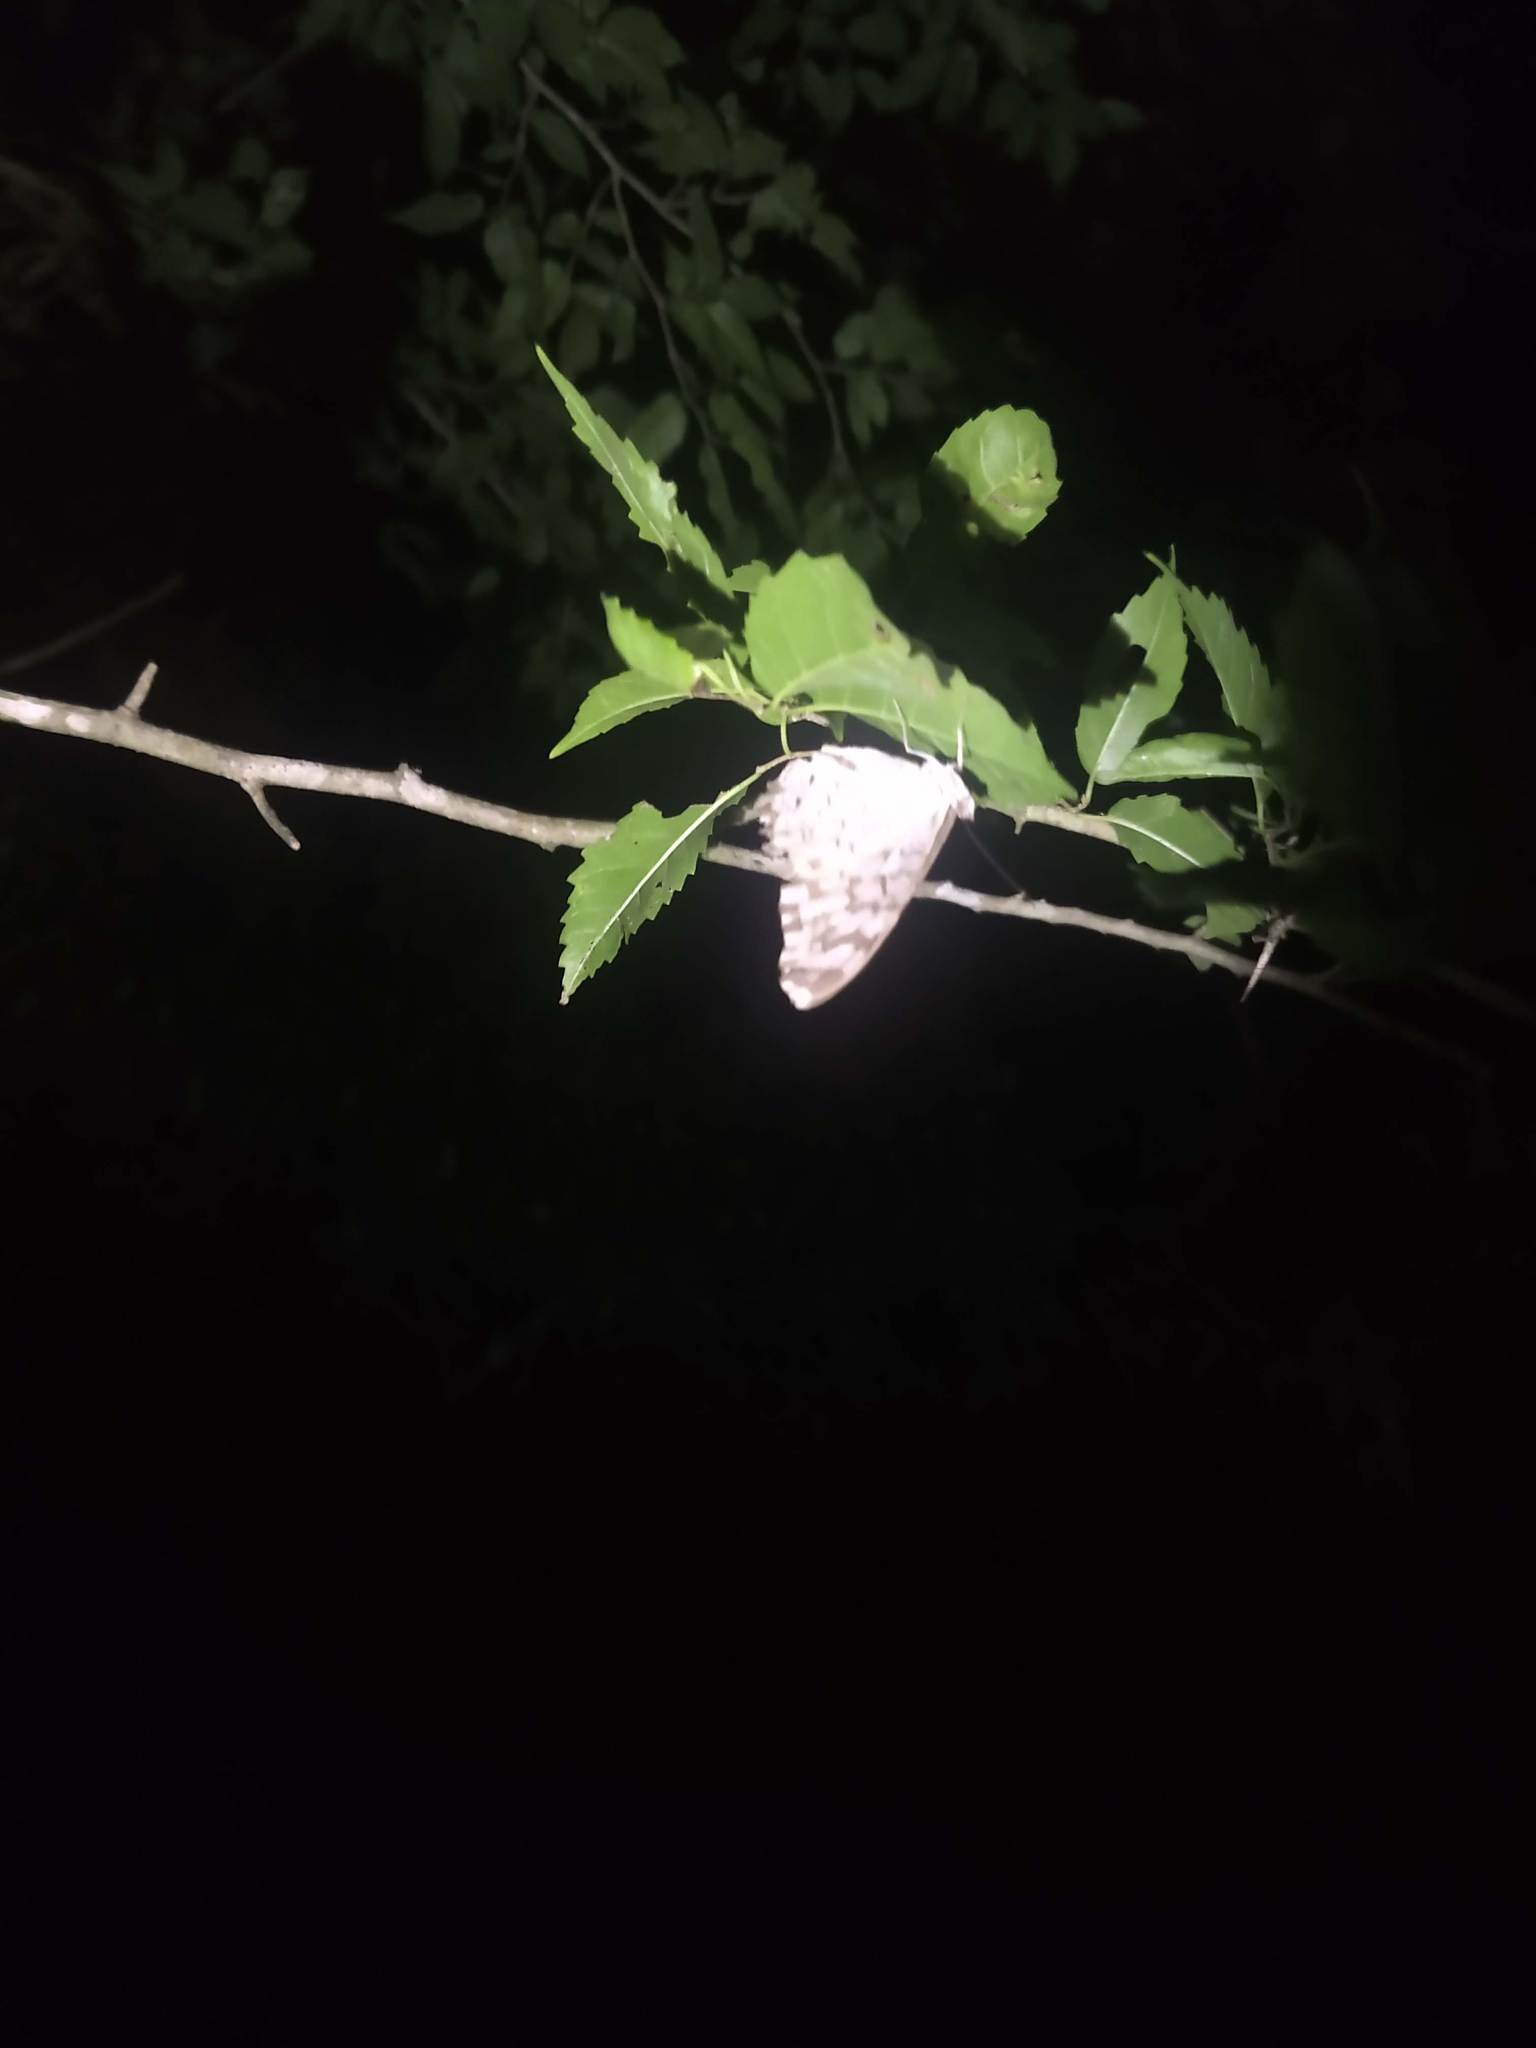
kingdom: Animalia
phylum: Arthropoda
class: Insecta
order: Lepidoptera
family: Nymphalidae
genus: Hamadryas
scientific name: Hamadryas februa
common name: Gray cracker
